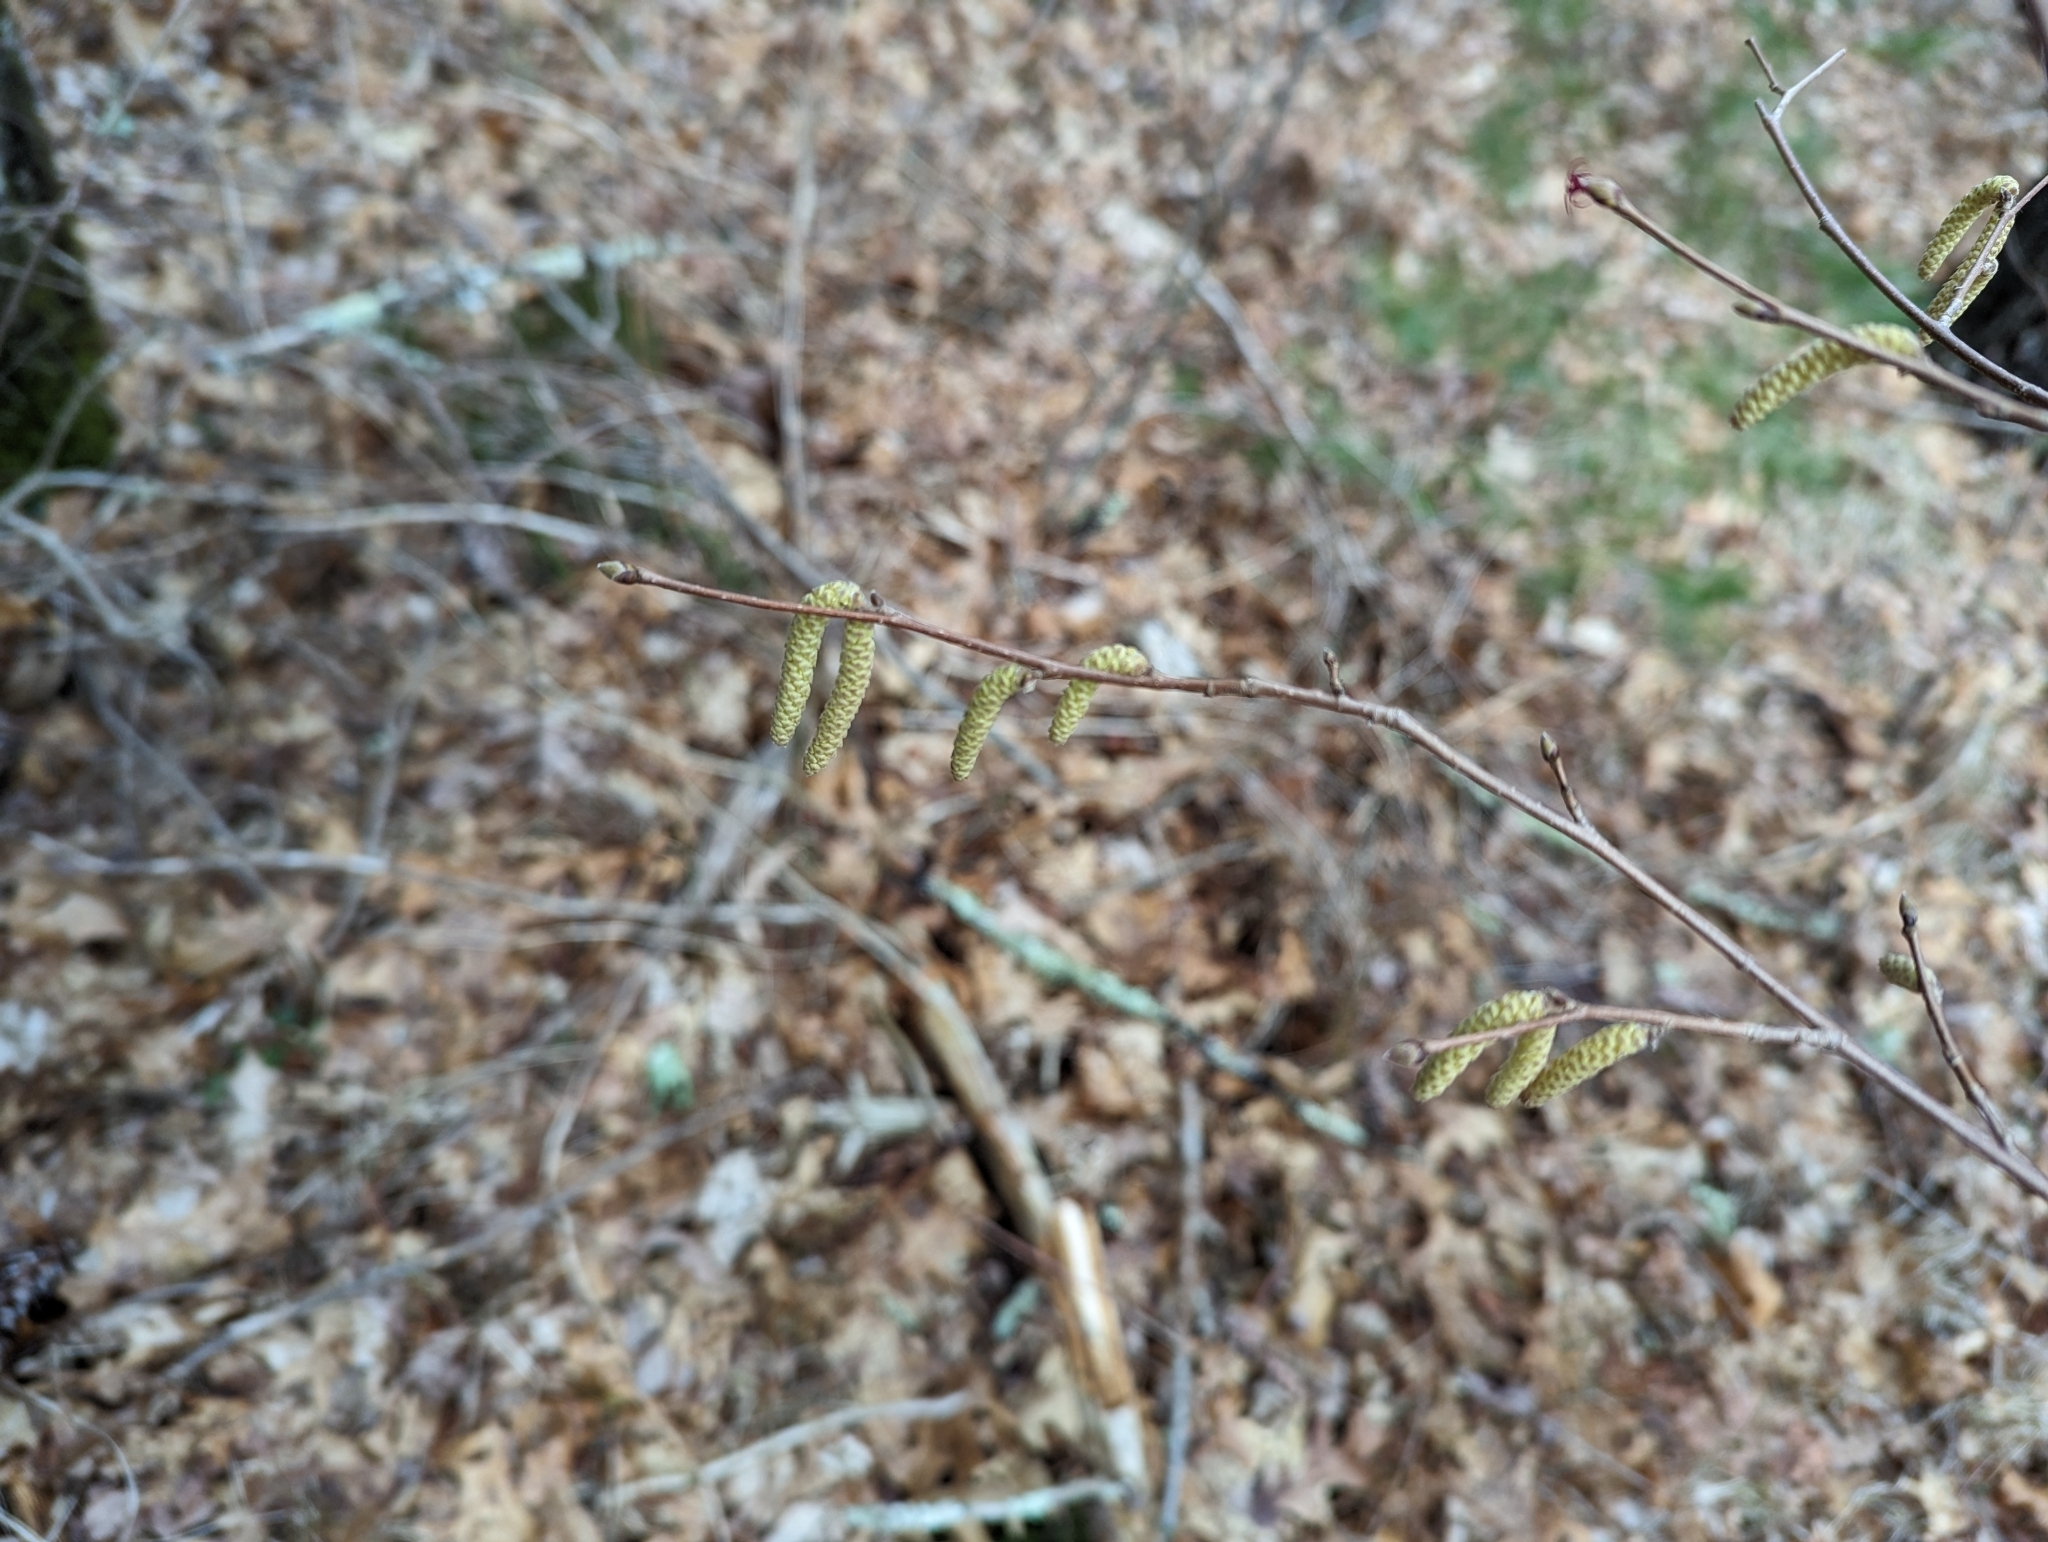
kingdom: Plantae
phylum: Tracheophyta
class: Magnoliopsida
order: Fagales
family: Betulaceae
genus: Corylus
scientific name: Corylus cornuta
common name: Beaked hazel
